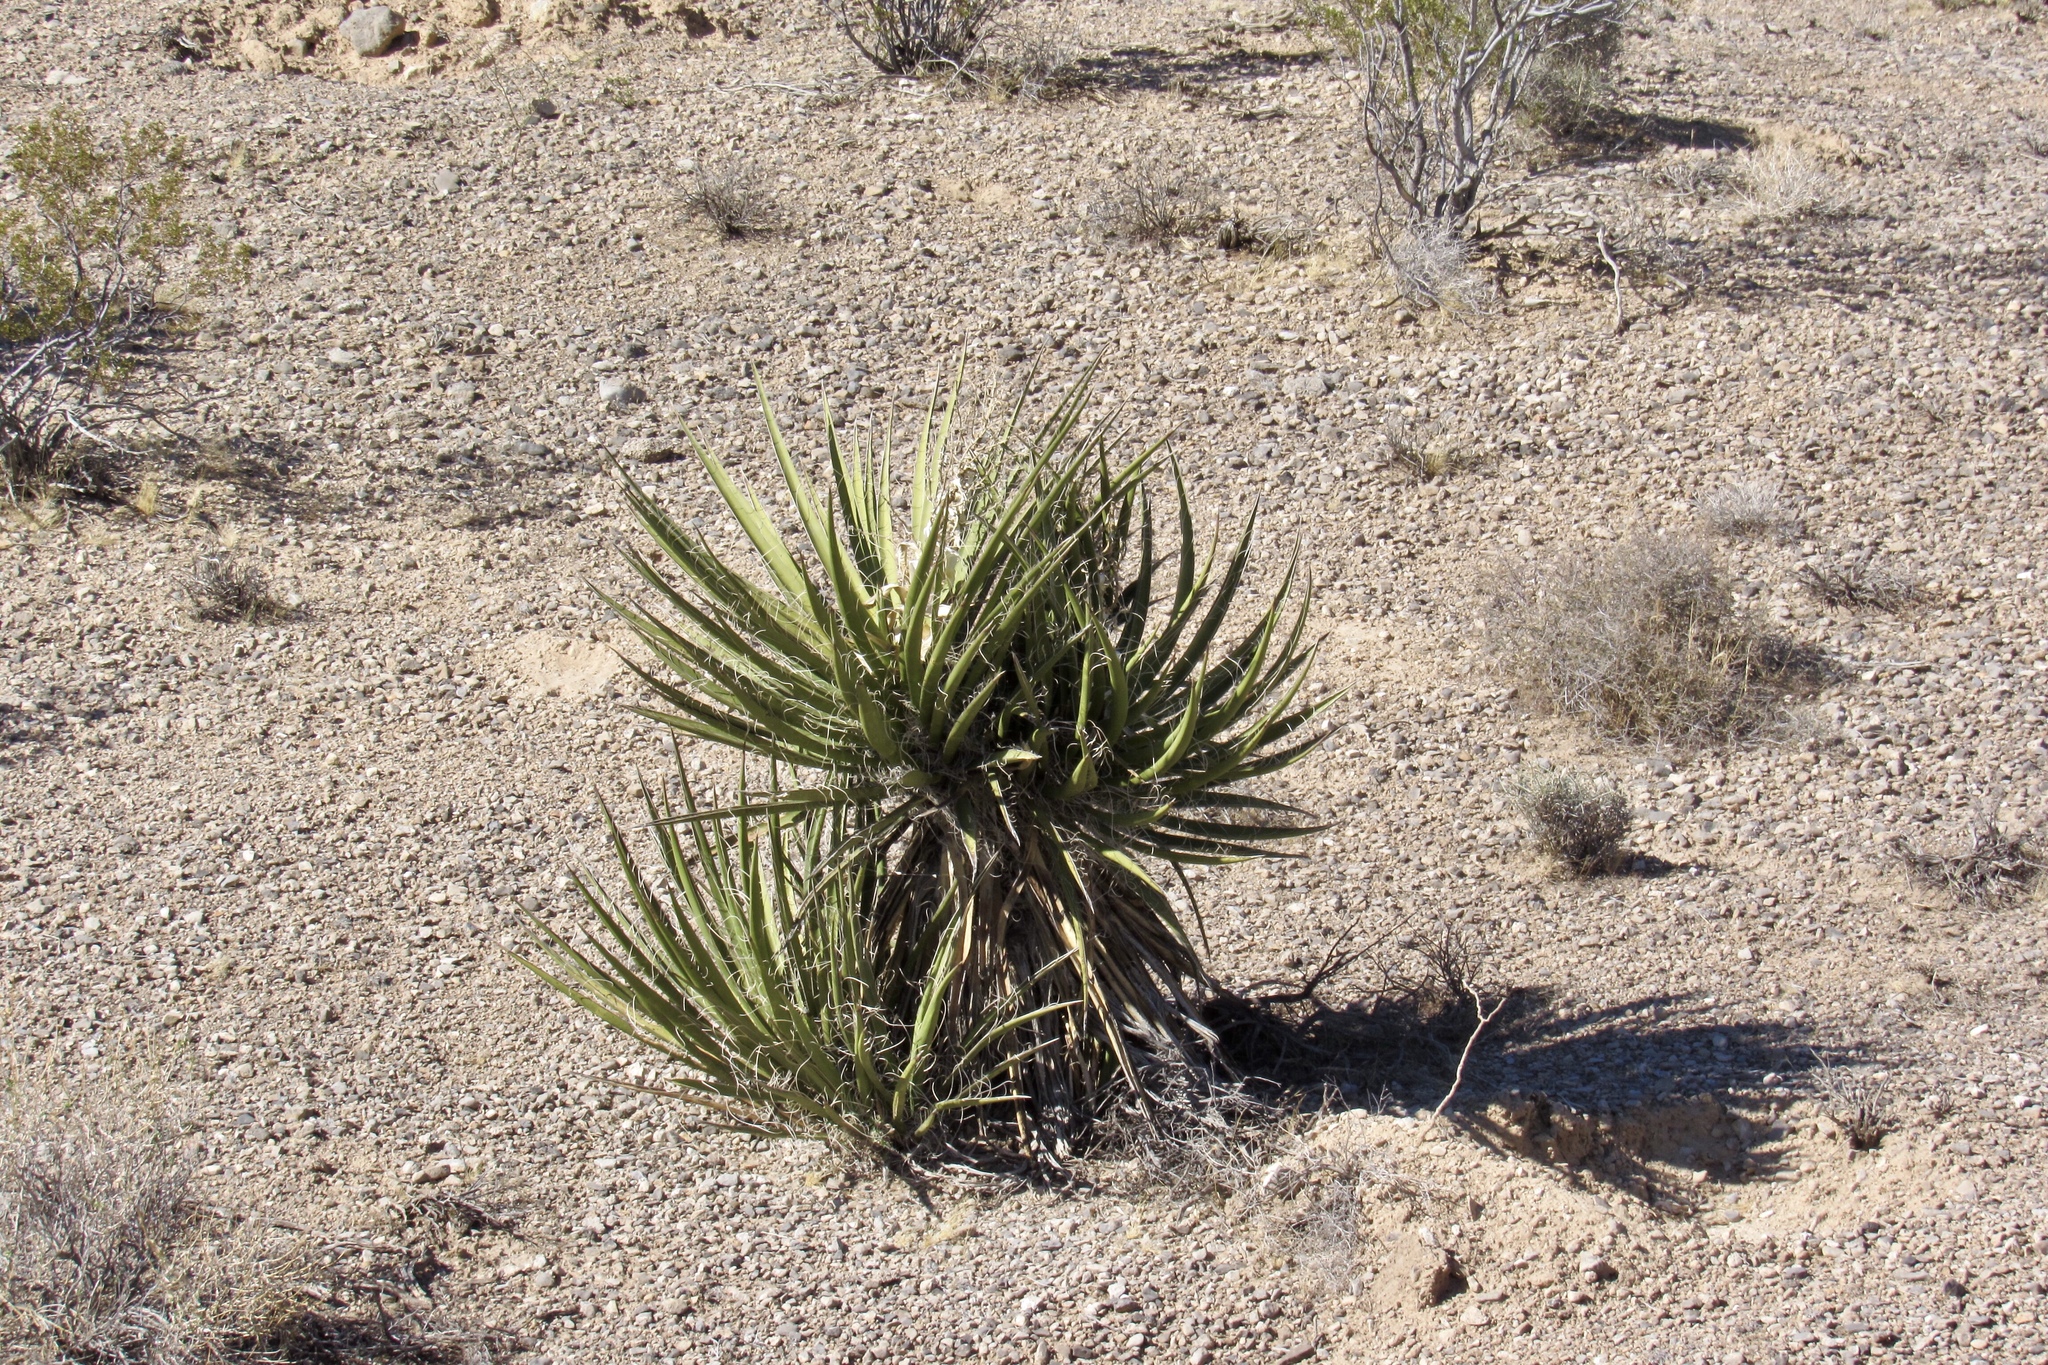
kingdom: Plantae
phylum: Tracheophyta
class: Liliopsida
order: Asparagales
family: Asparagaceae
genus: Yucca
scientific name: Yucca schidigera
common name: Mojave yucca
